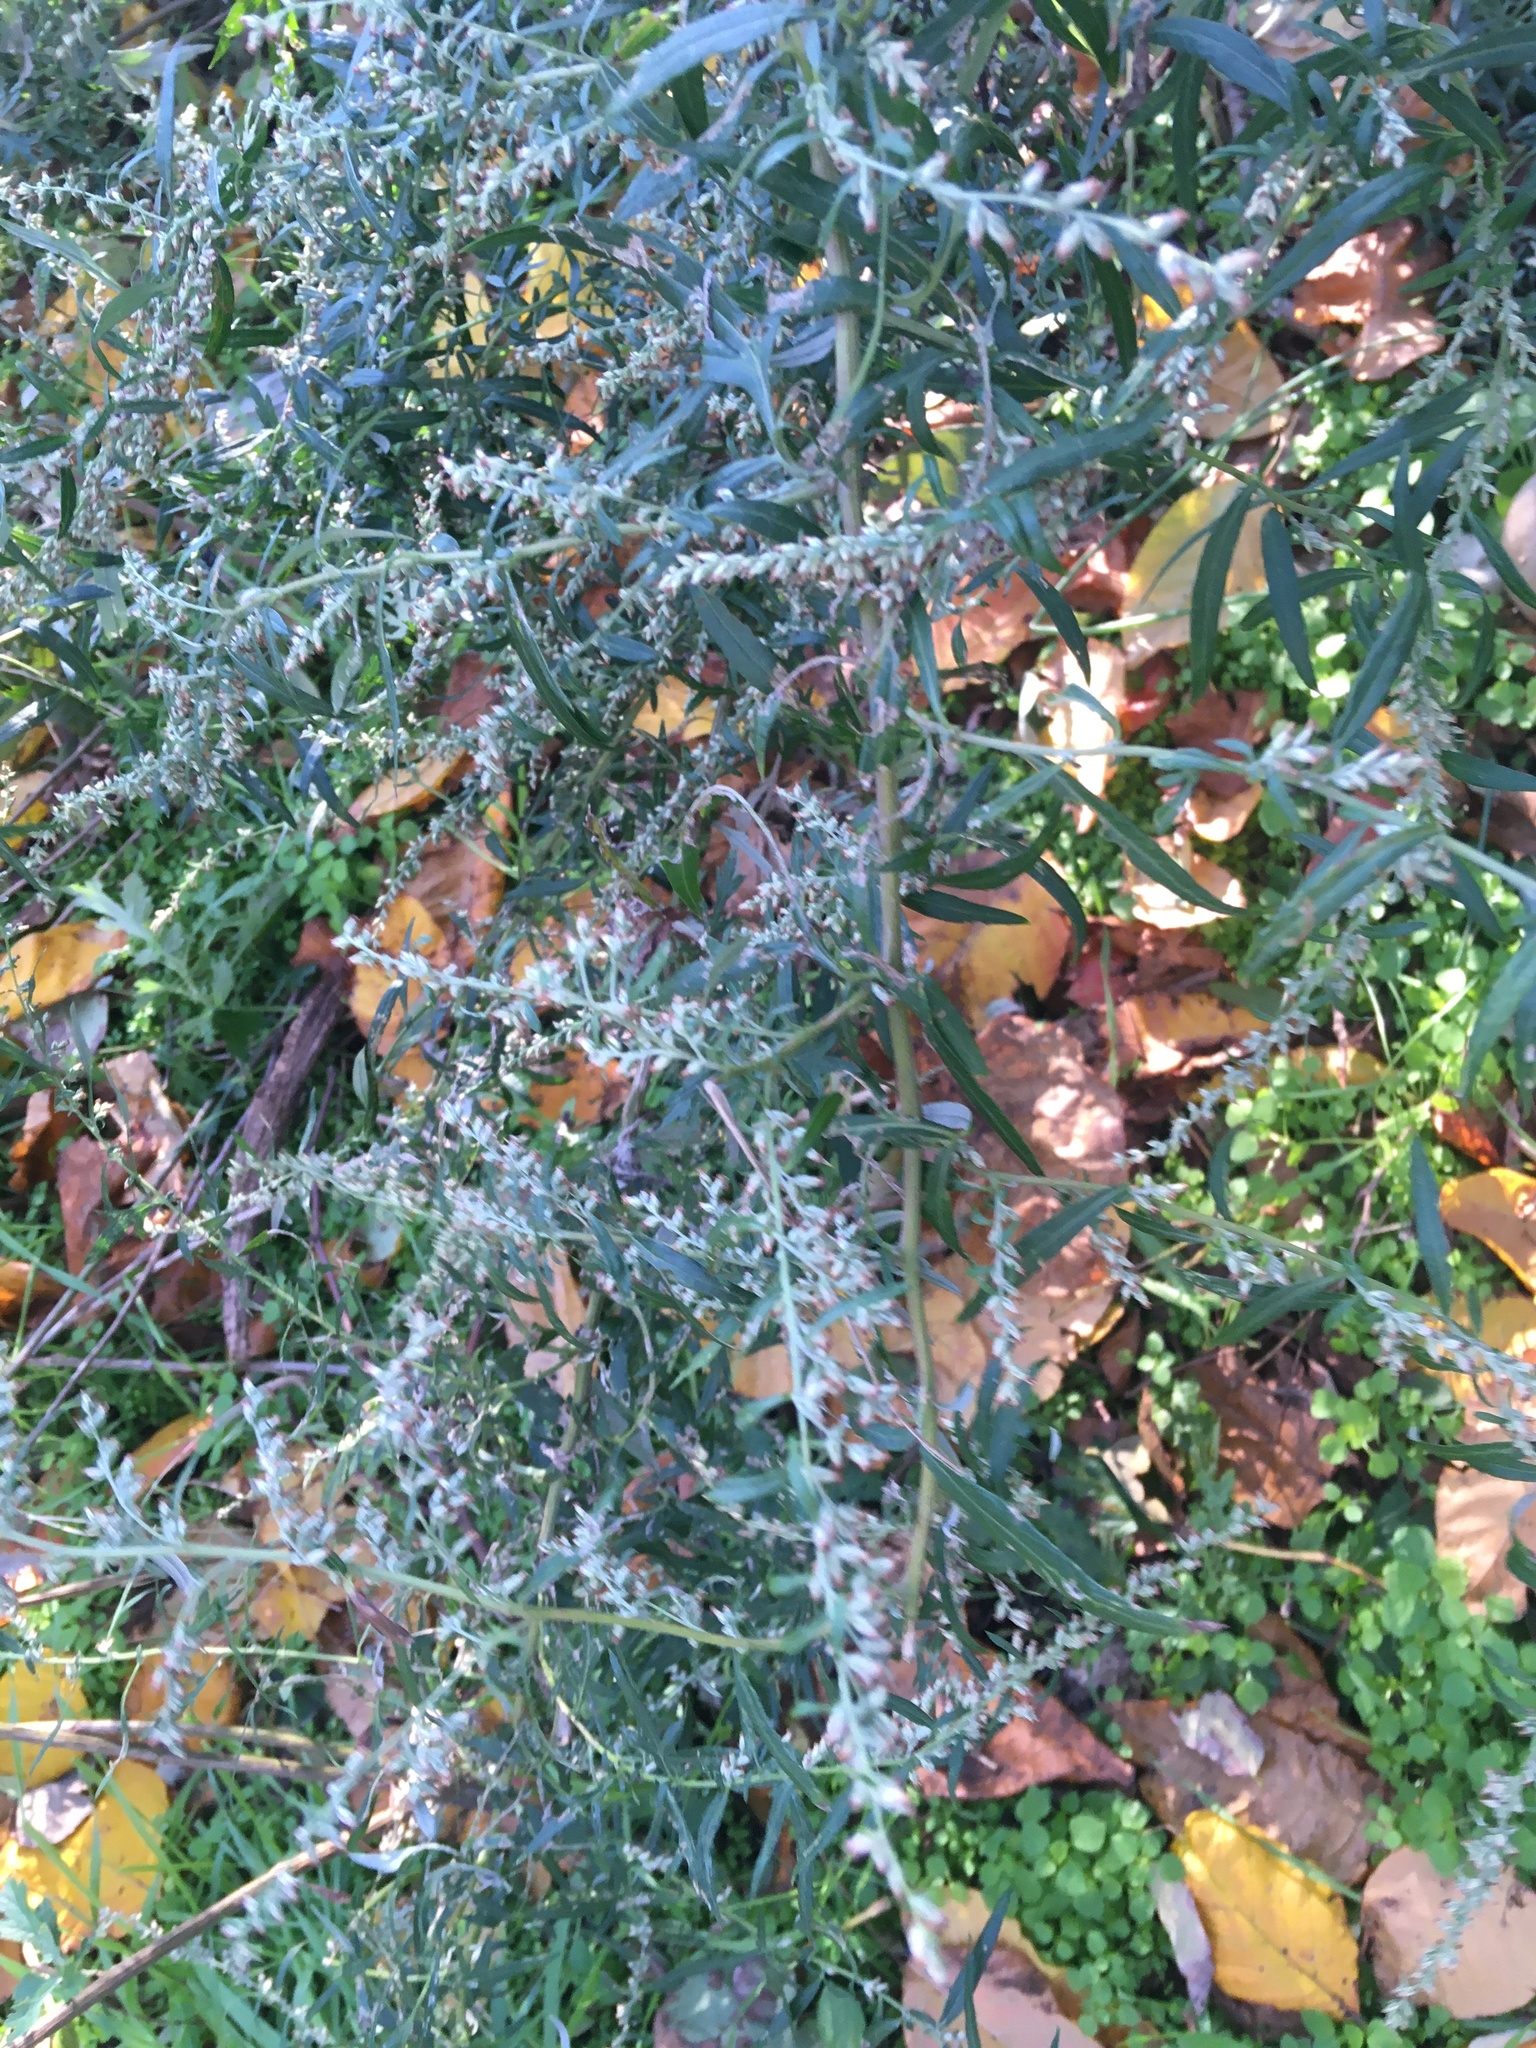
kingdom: Plantae
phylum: Tracheophyta
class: Magnoliopsida
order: Asterales
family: Asteraceae
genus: Artemisia
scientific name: Artemisia vulgaris
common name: Mugwort
